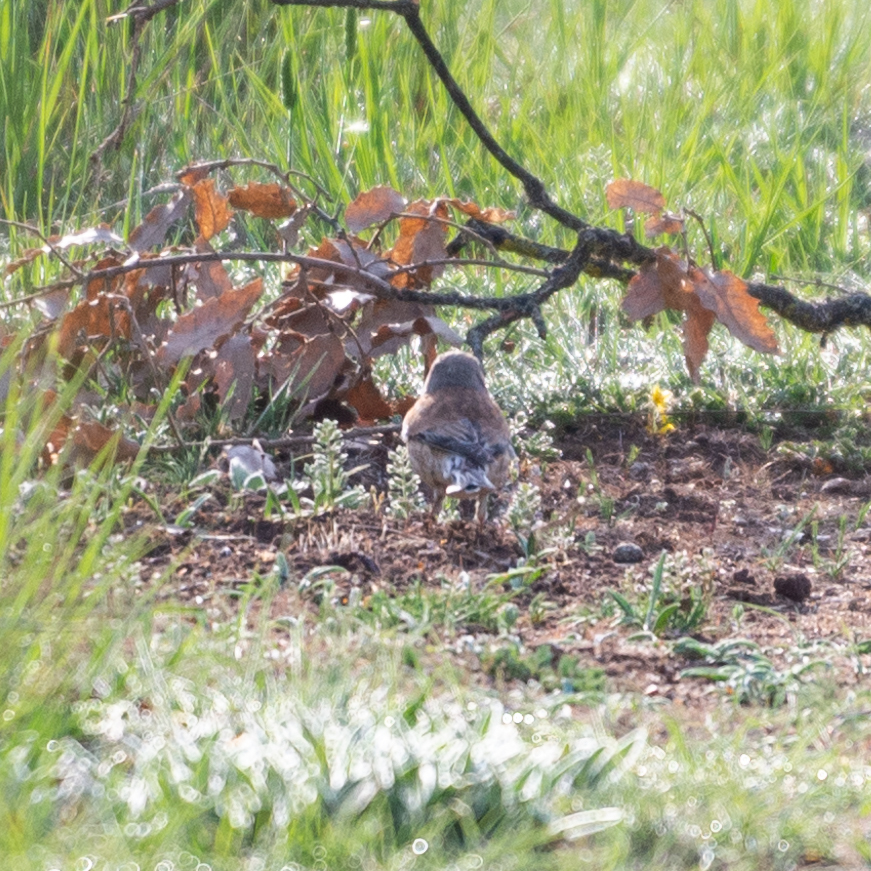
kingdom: Animalia
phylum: Chordata
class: Aves
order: Passeriformes
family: Fringillidae
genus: Linaria
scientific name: Linaria cannabina
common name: Common linnet
